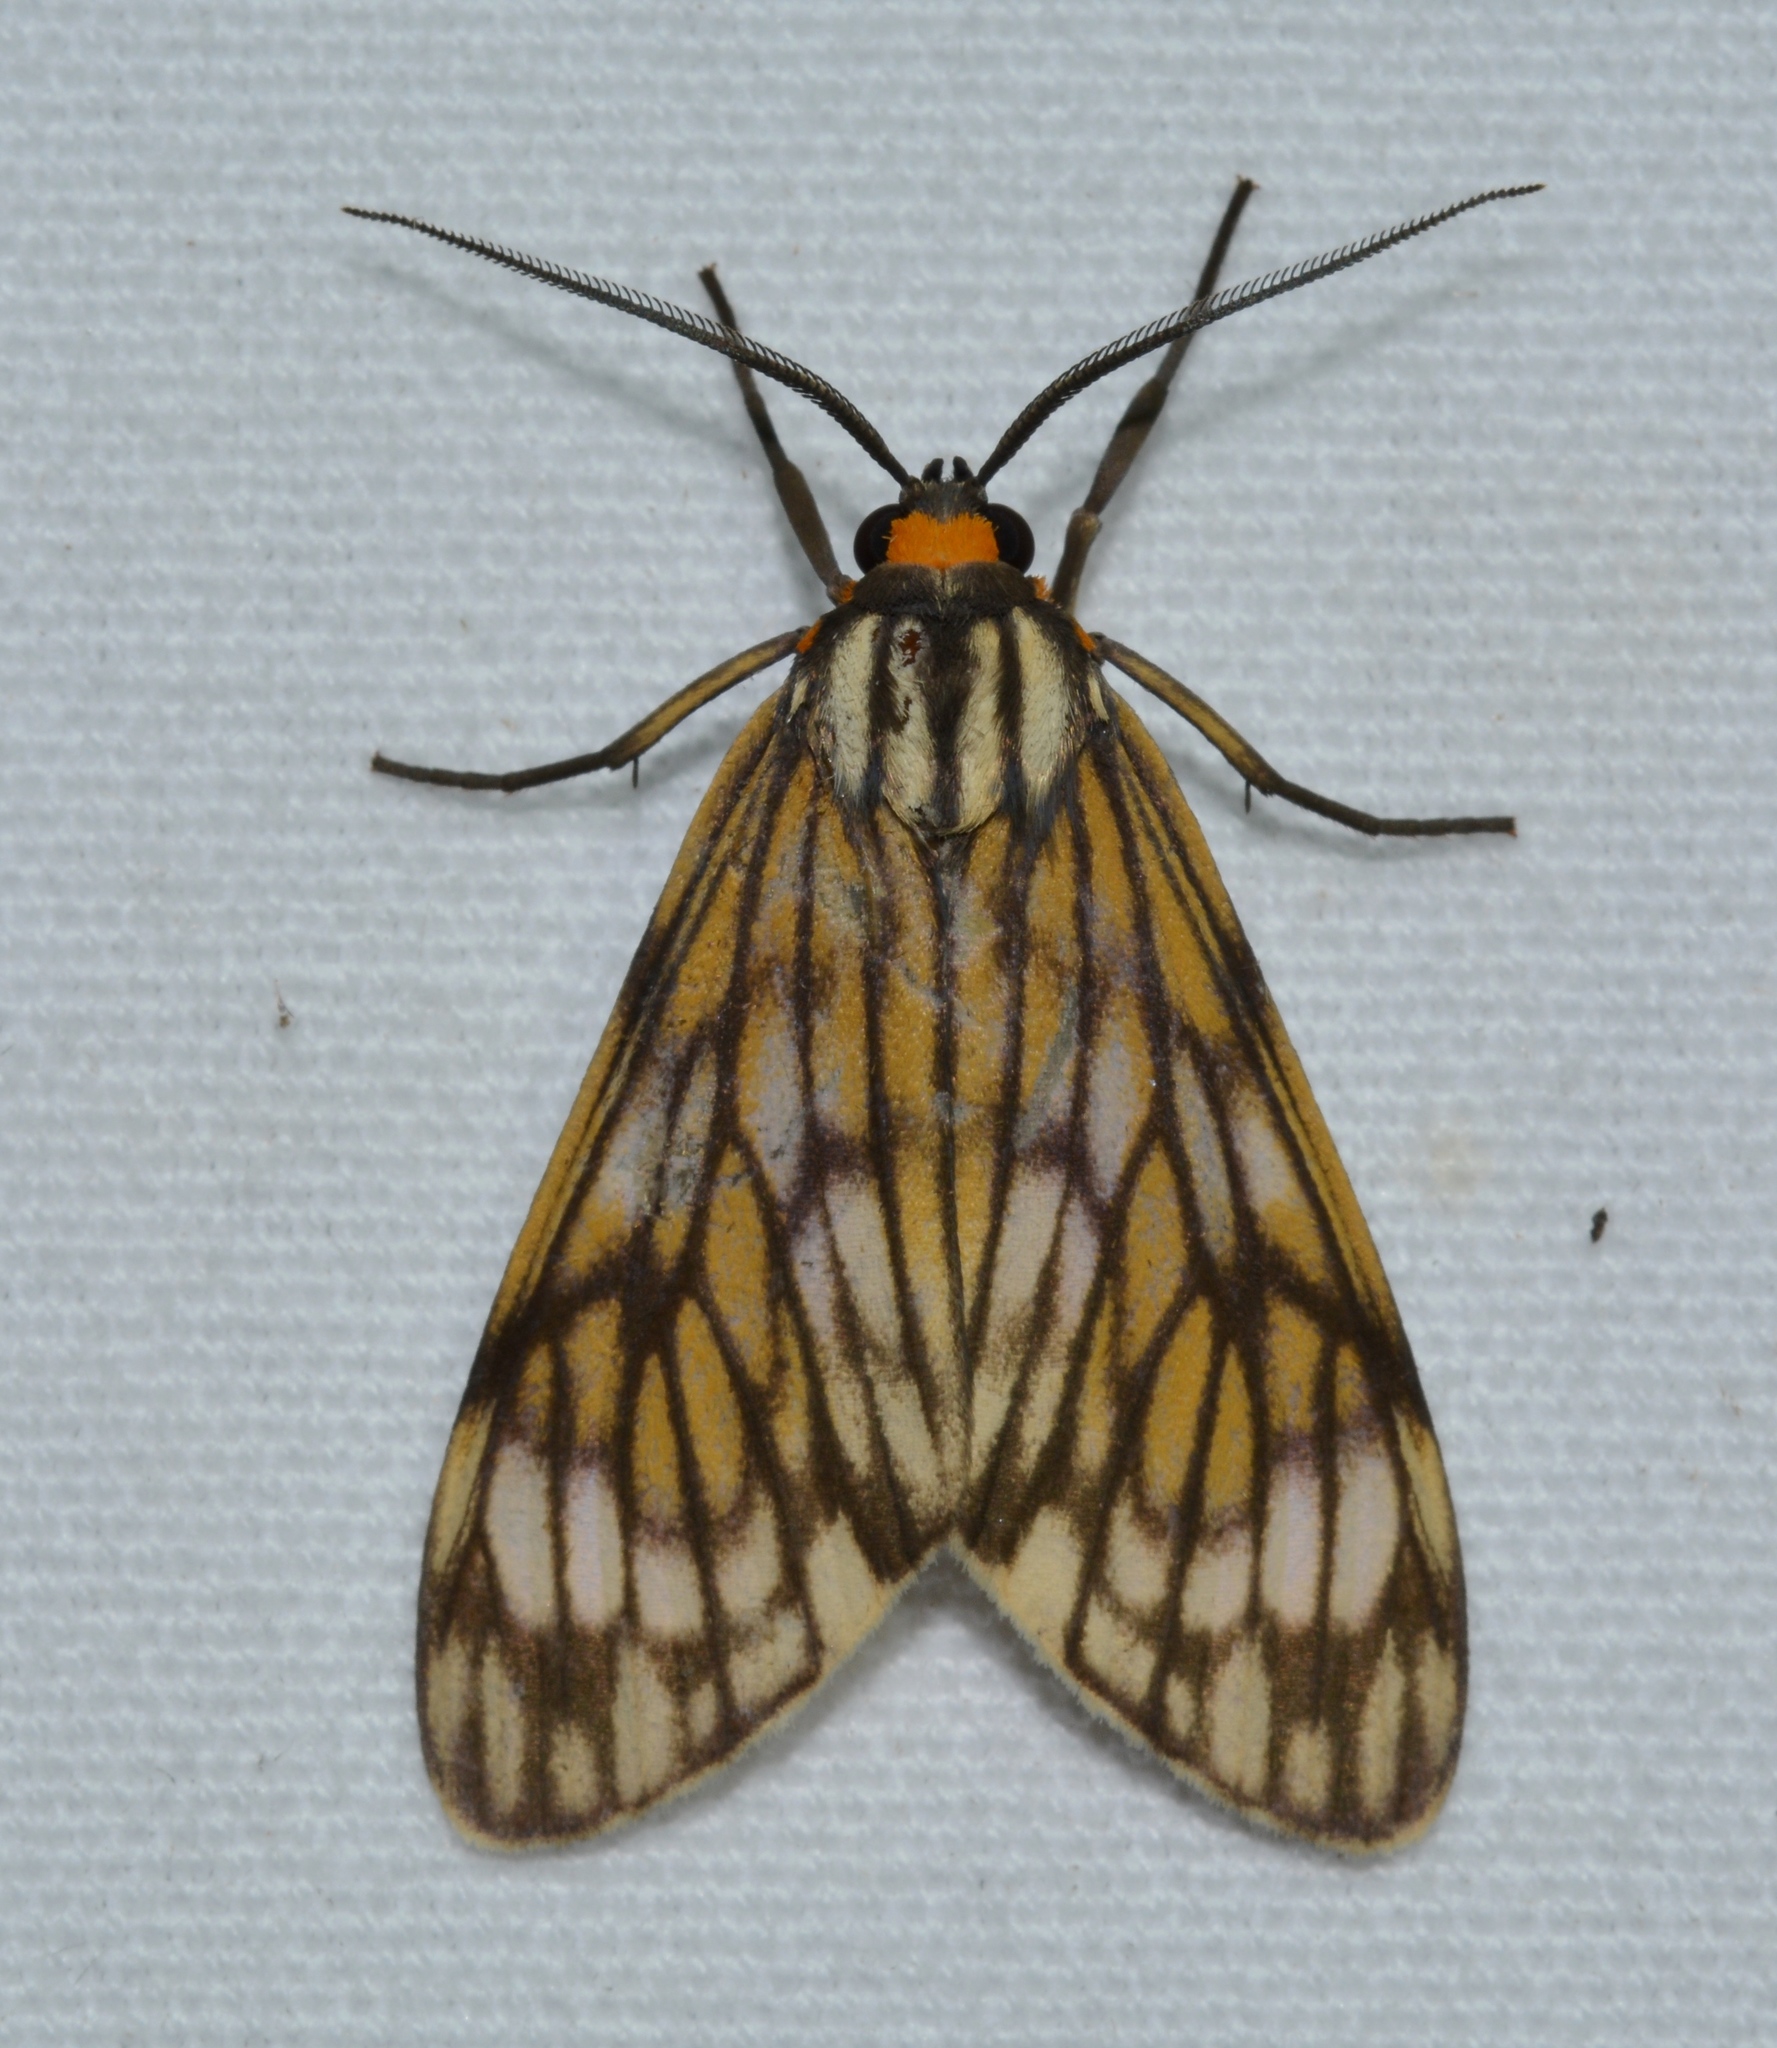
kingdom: Animalia
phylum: Arthropoda
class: Insecta
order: Lepidoptera
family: Erebidae
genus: Theages
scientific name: Theages decorum
